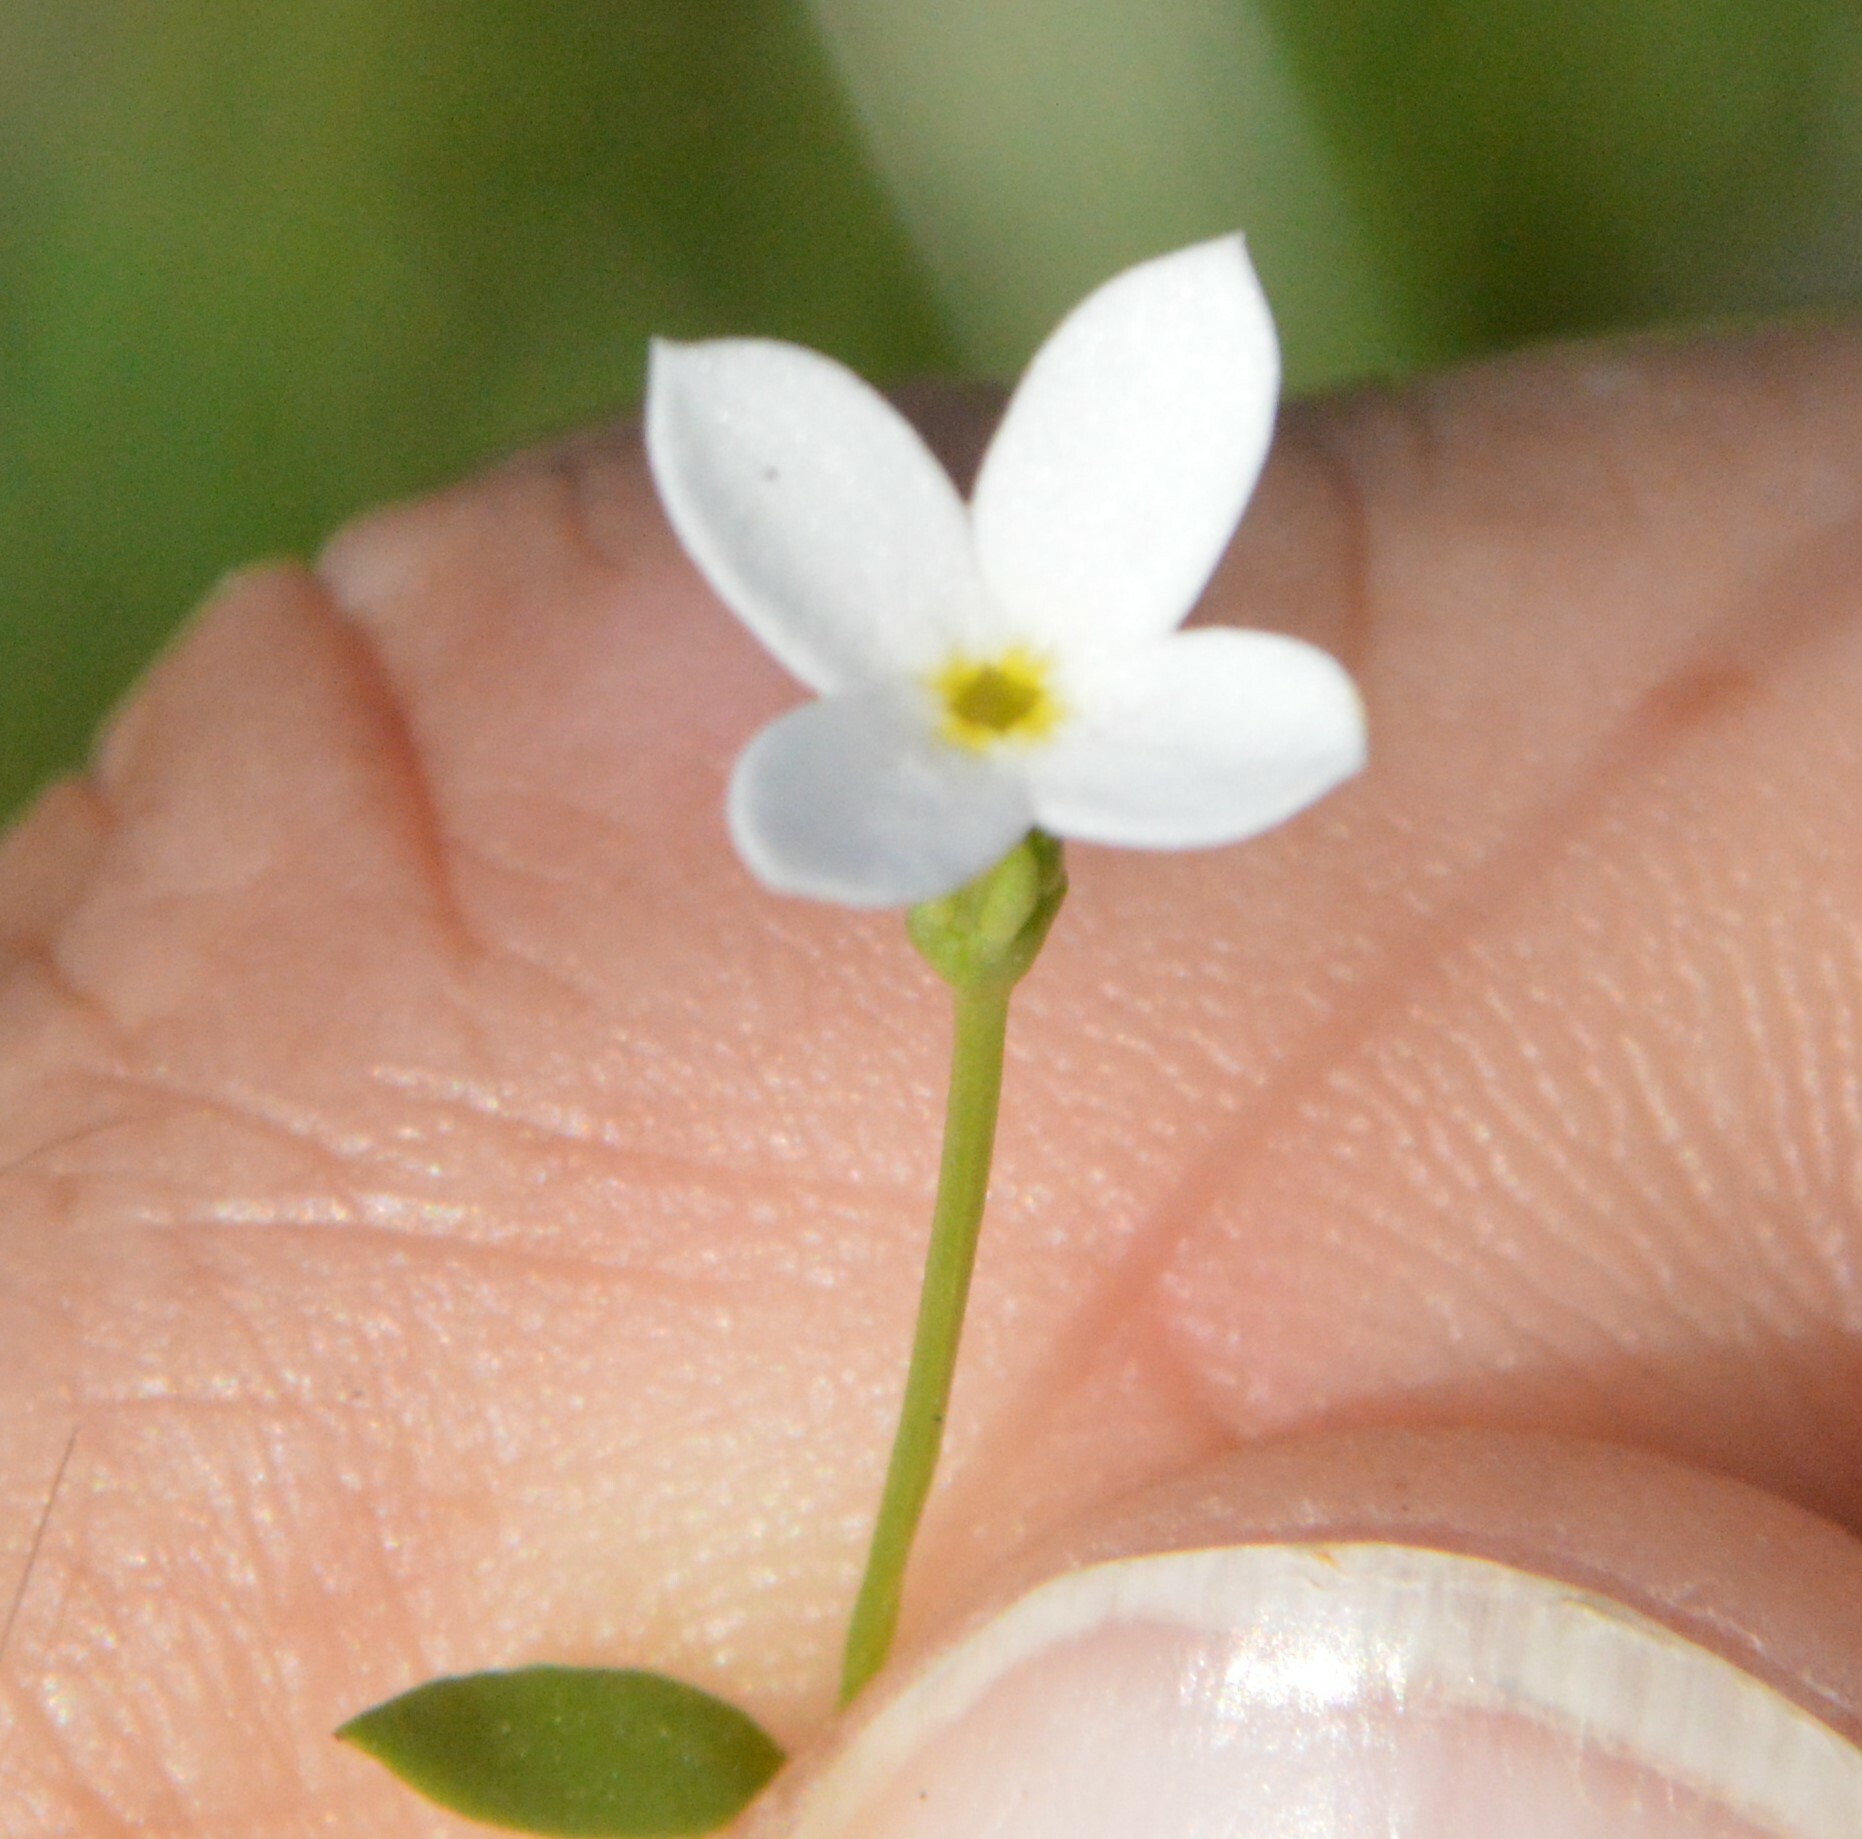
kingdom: Plantae
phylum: Tracheophyta
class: Magnoliopsida
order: Gentianales
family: Rubiaceae
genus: Houstonia
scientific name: Houstonia pusilla
